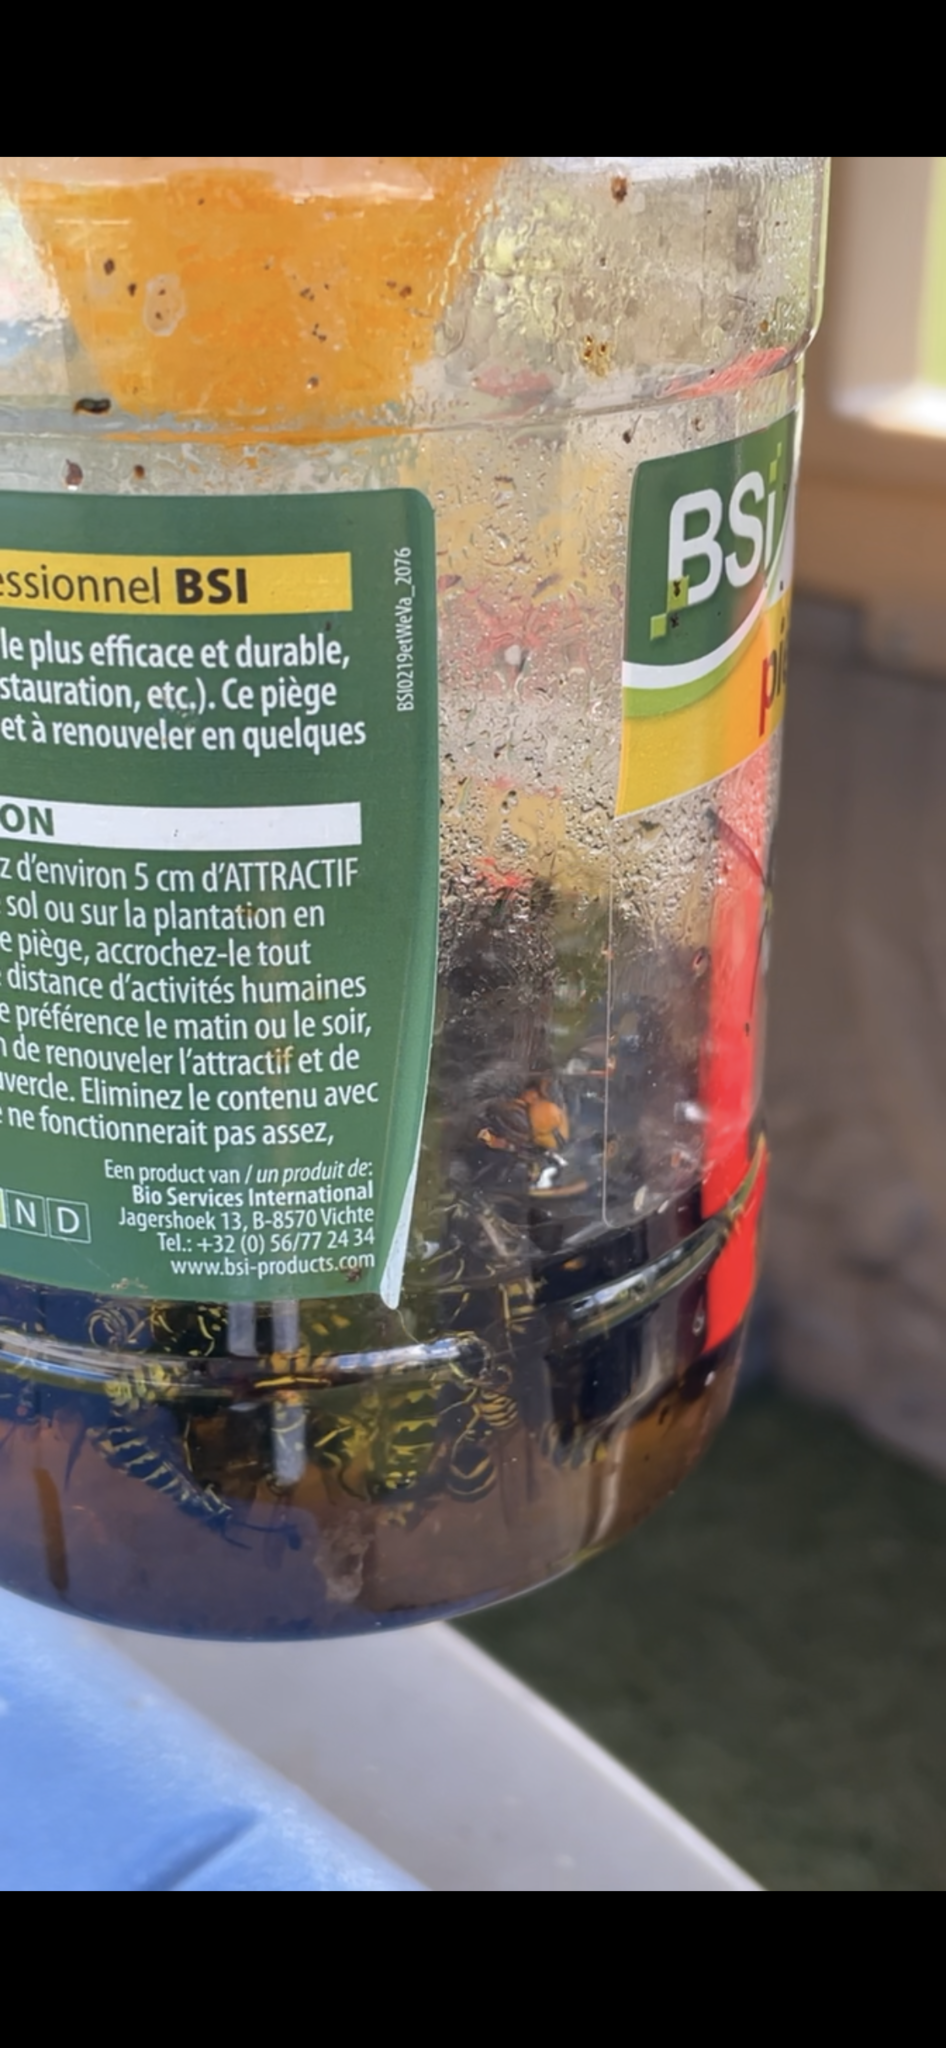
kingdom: Animalia
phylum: Arthropoda
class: Insecta
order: Hymenoptera
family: Vespidae
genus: Vespa
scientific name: Vespa velutina
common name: Asian hornet
